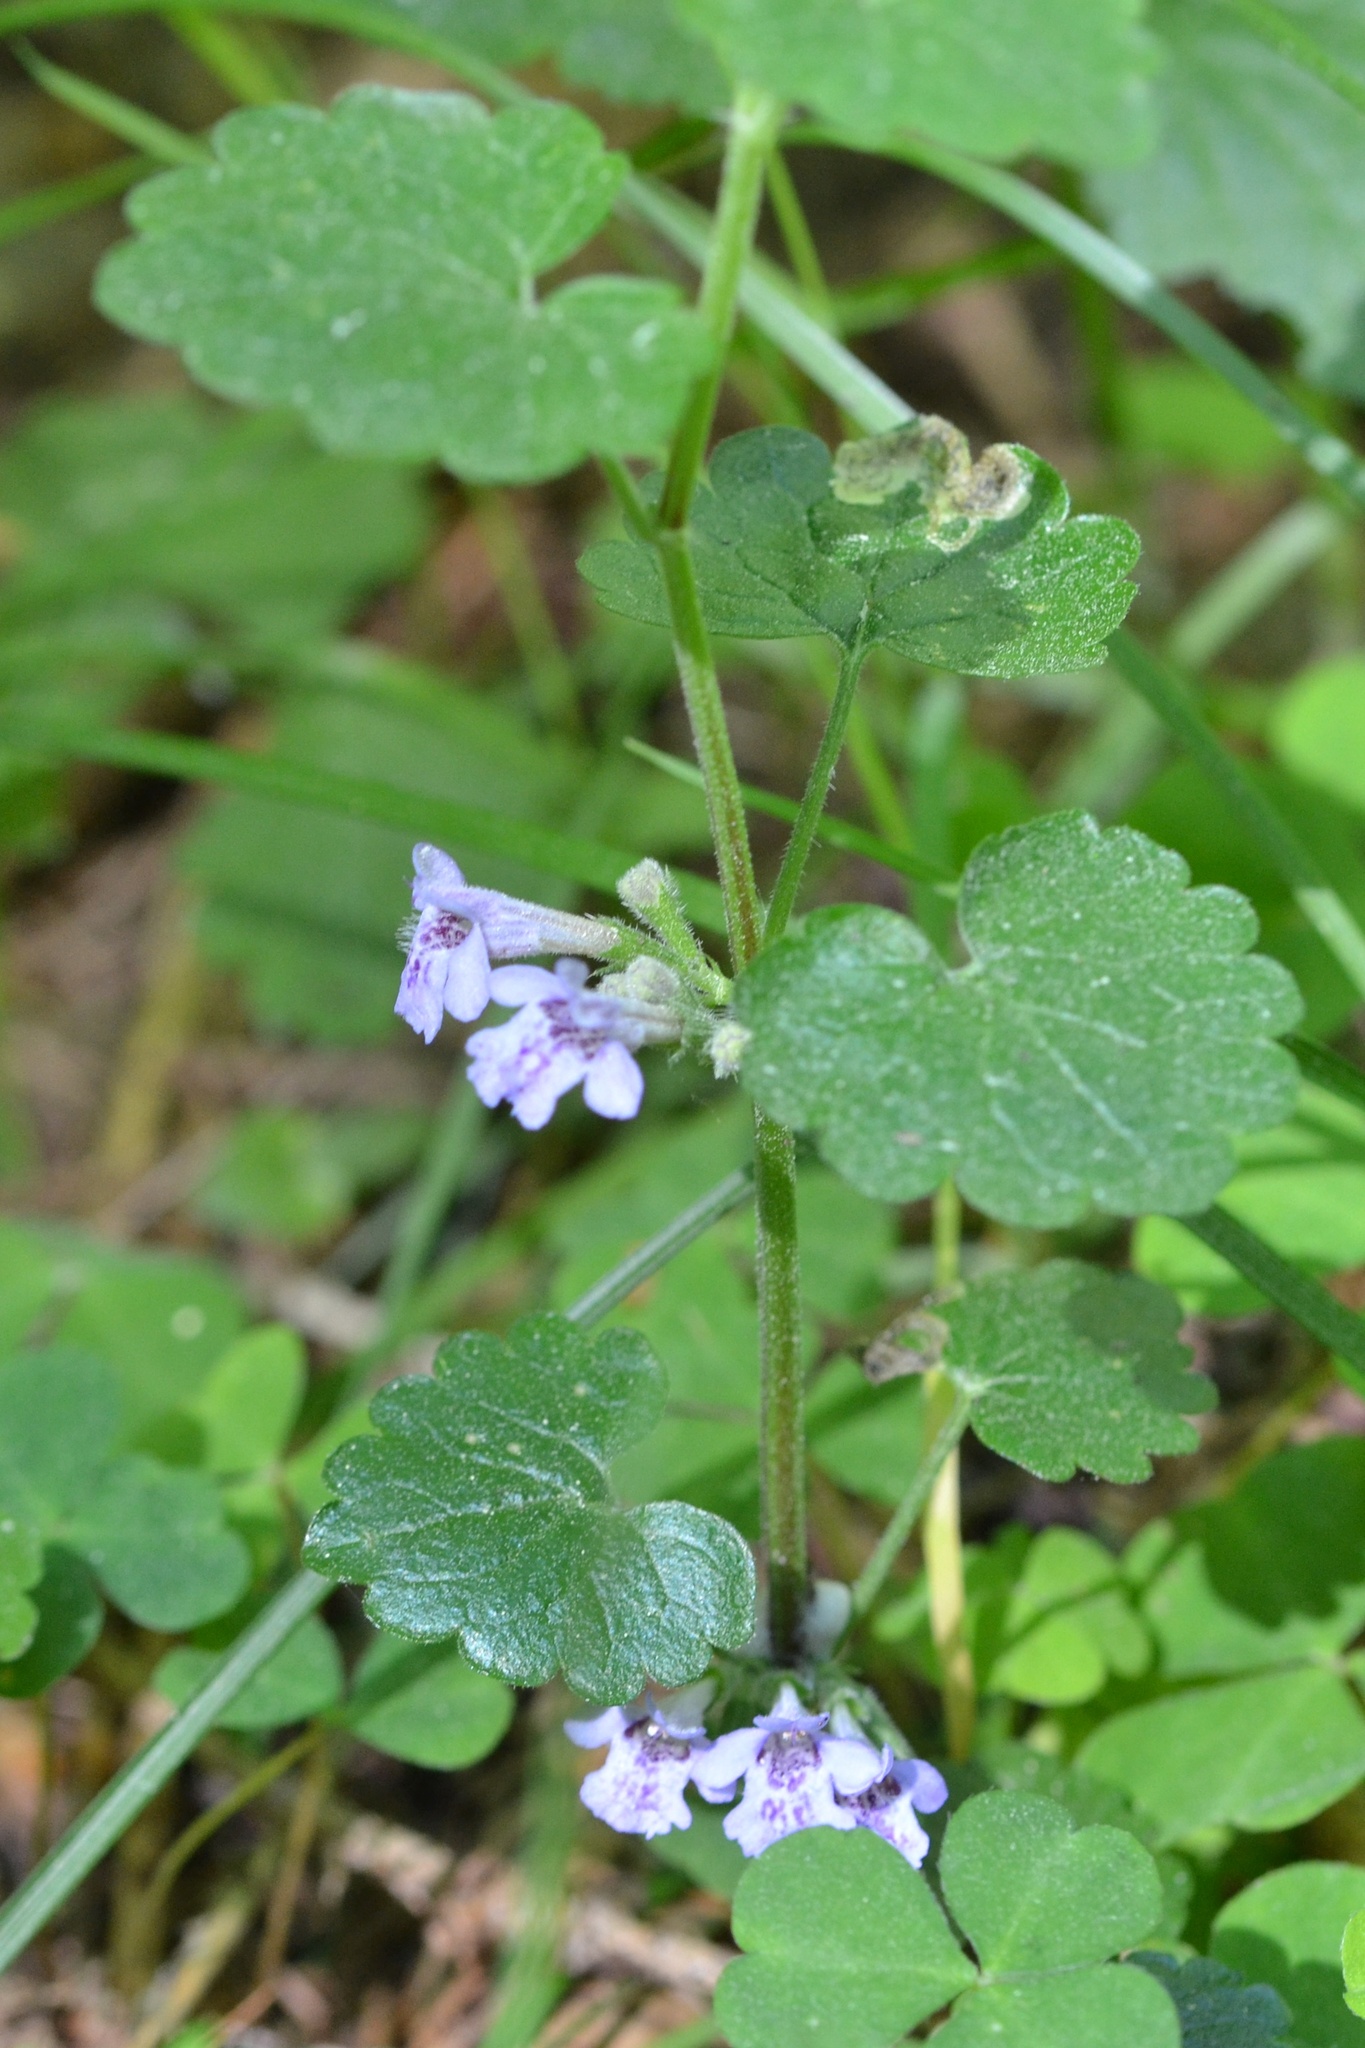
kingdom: Plantae
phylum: Tracheophyta
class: Magnoliopsida
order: Lamiales
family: Lamiaceae
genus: Glechoma
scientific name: Glechoma hederacea
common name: Ground ivy
